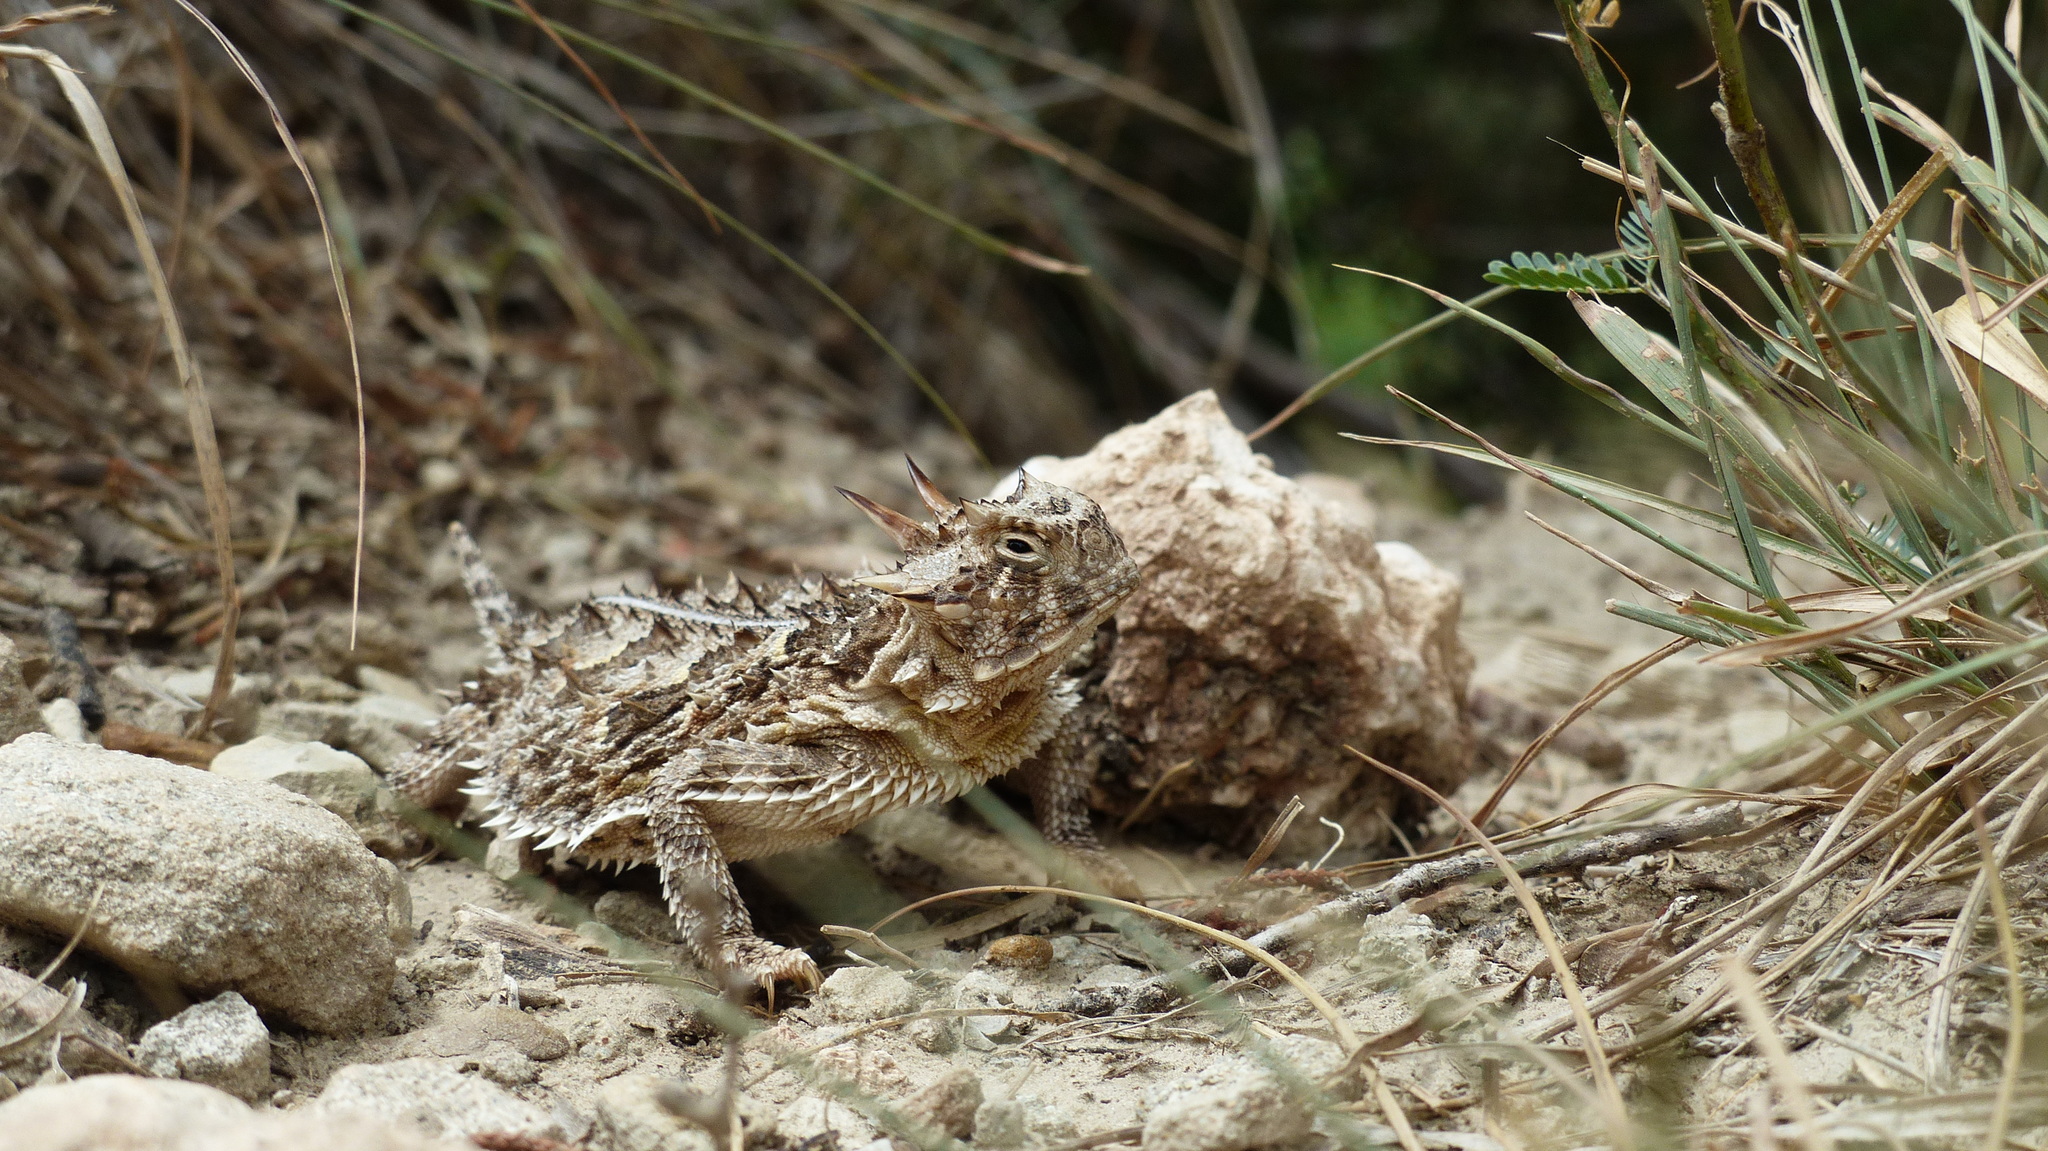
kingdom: Animalia
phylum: Chordata
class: Squamata
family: Phrynosomatidae
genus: Phrynosoma
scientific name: Phrynosoma cornutum
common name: Texas horned lizard
